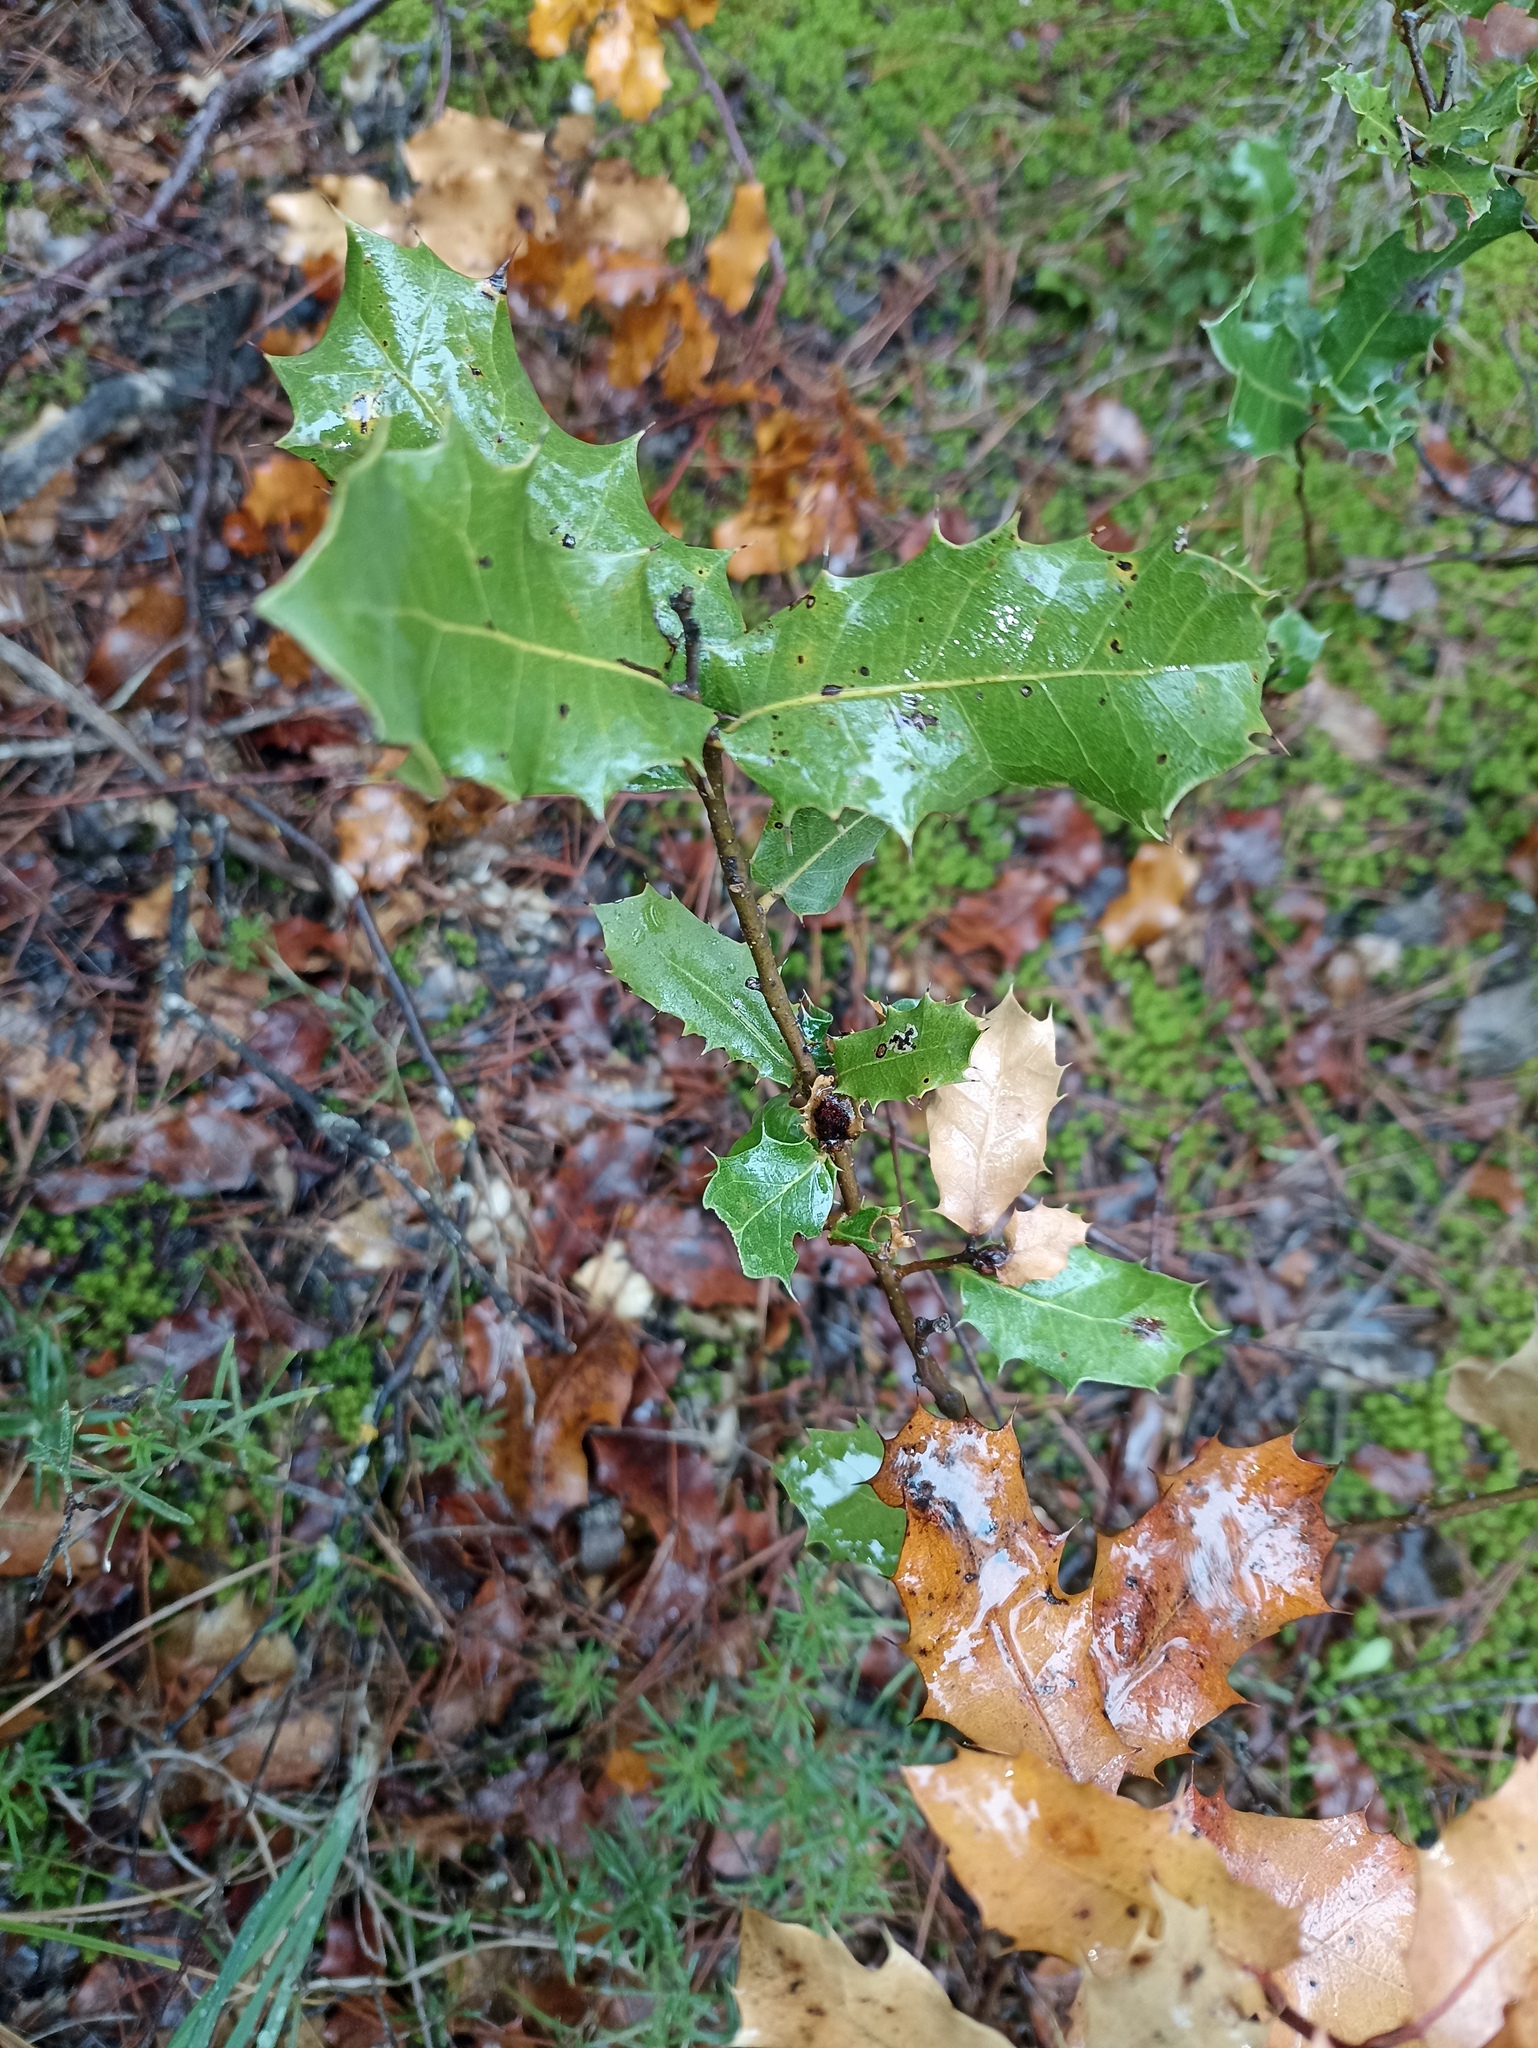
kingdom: Plantae
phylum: Tracheophyta
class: Magnoliopsida
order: Fagales
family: Fagaceae
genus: Quercus
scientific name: Quercus coccifera
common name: Kermes oak
